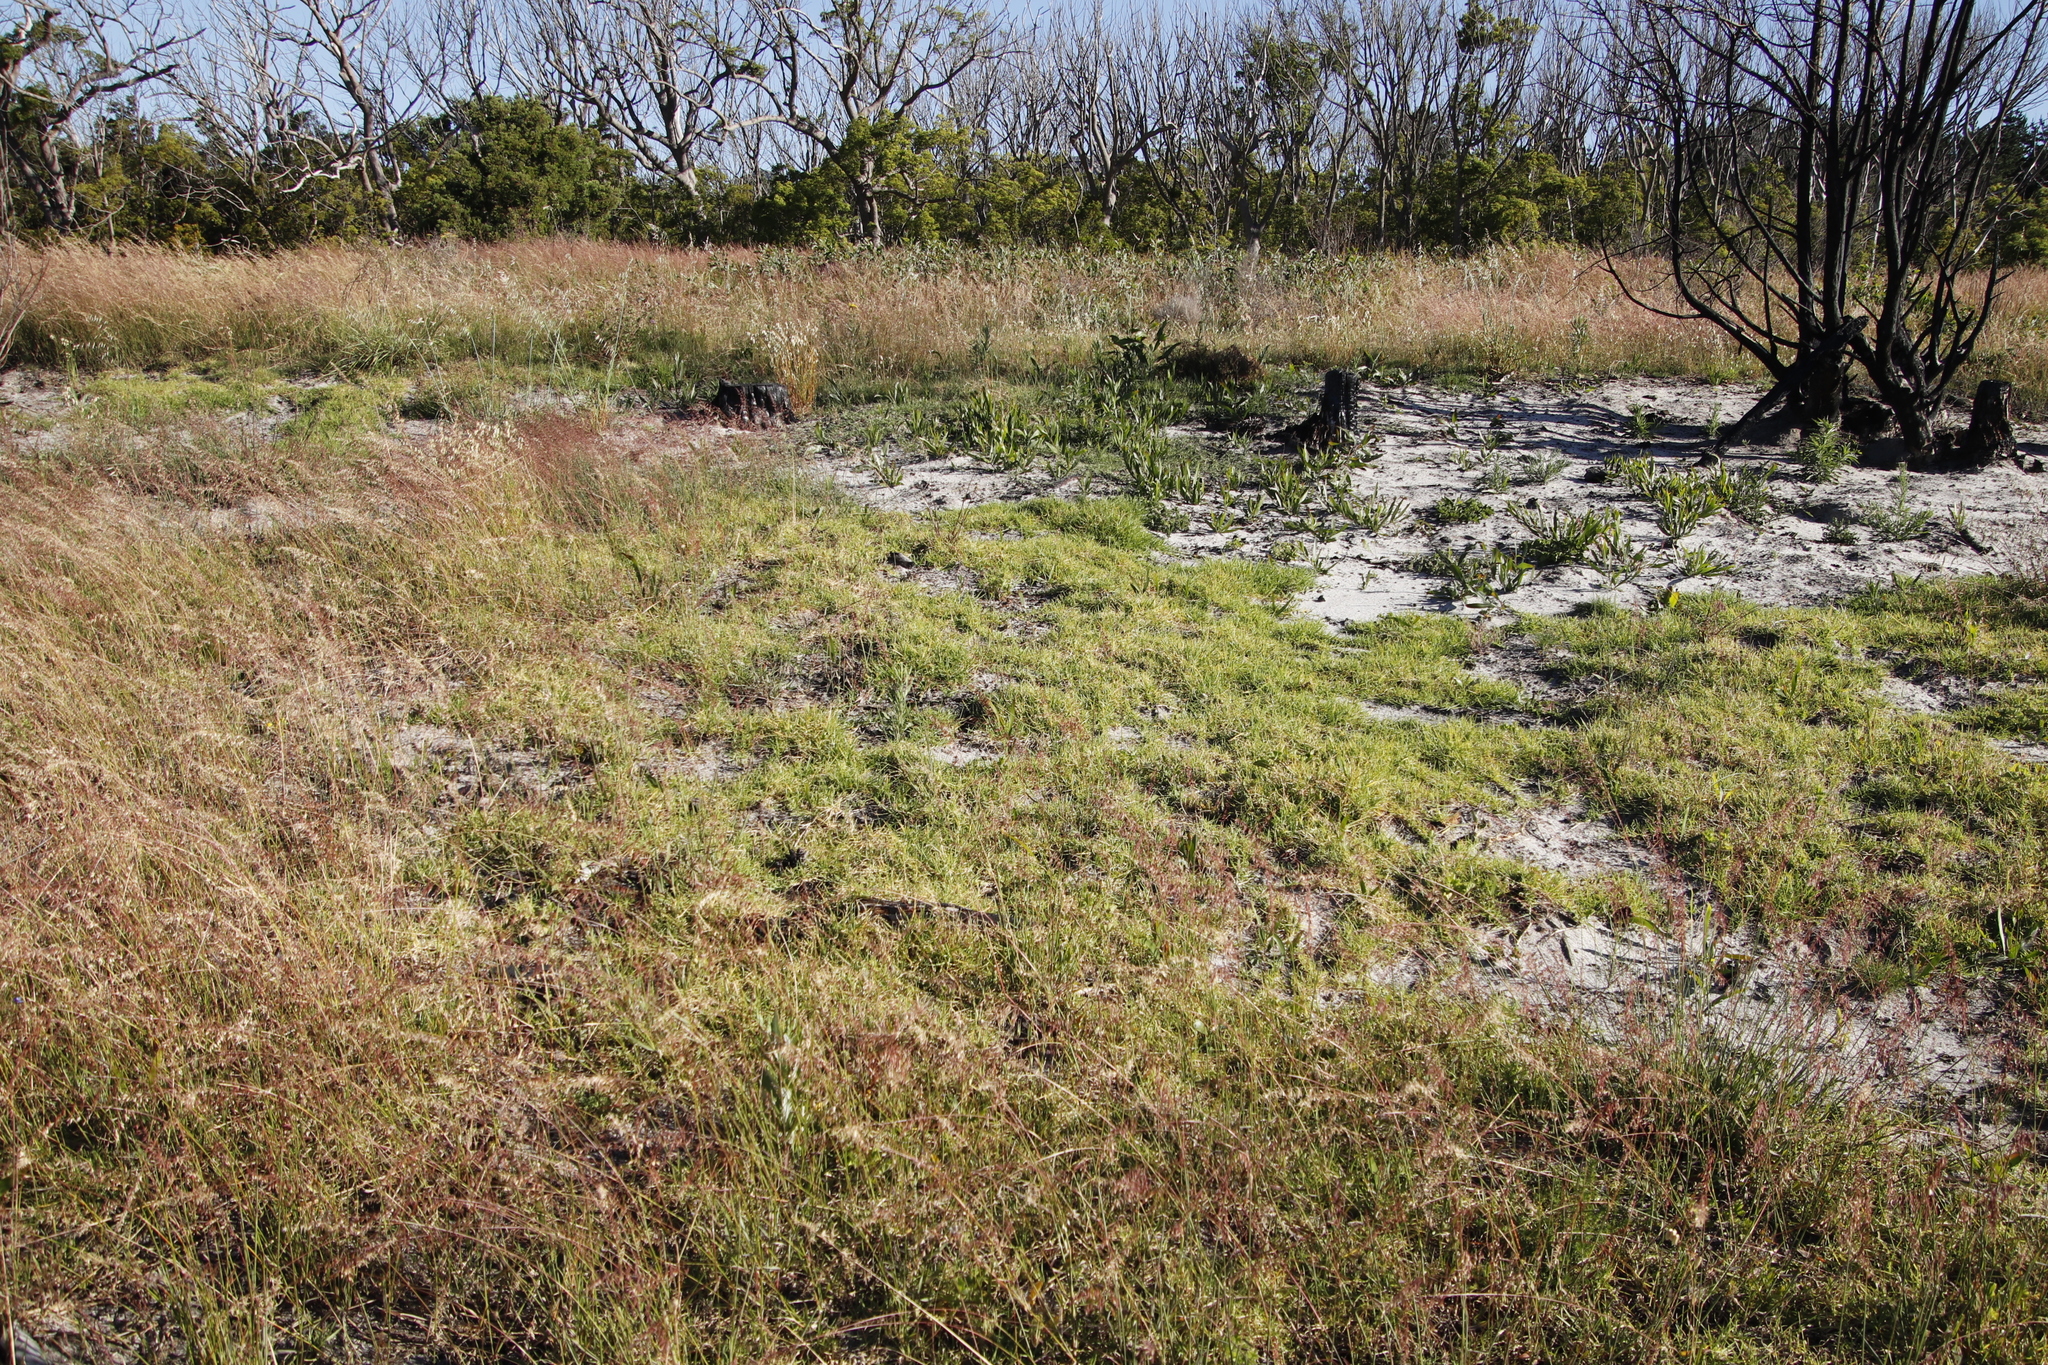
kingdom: Plantae
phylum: Tracheophyta
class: Liliopsida
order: Poales
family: Poaceae
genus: Cenchrus
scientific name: Cenchrus clandestinus
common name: Kikuyugrass
